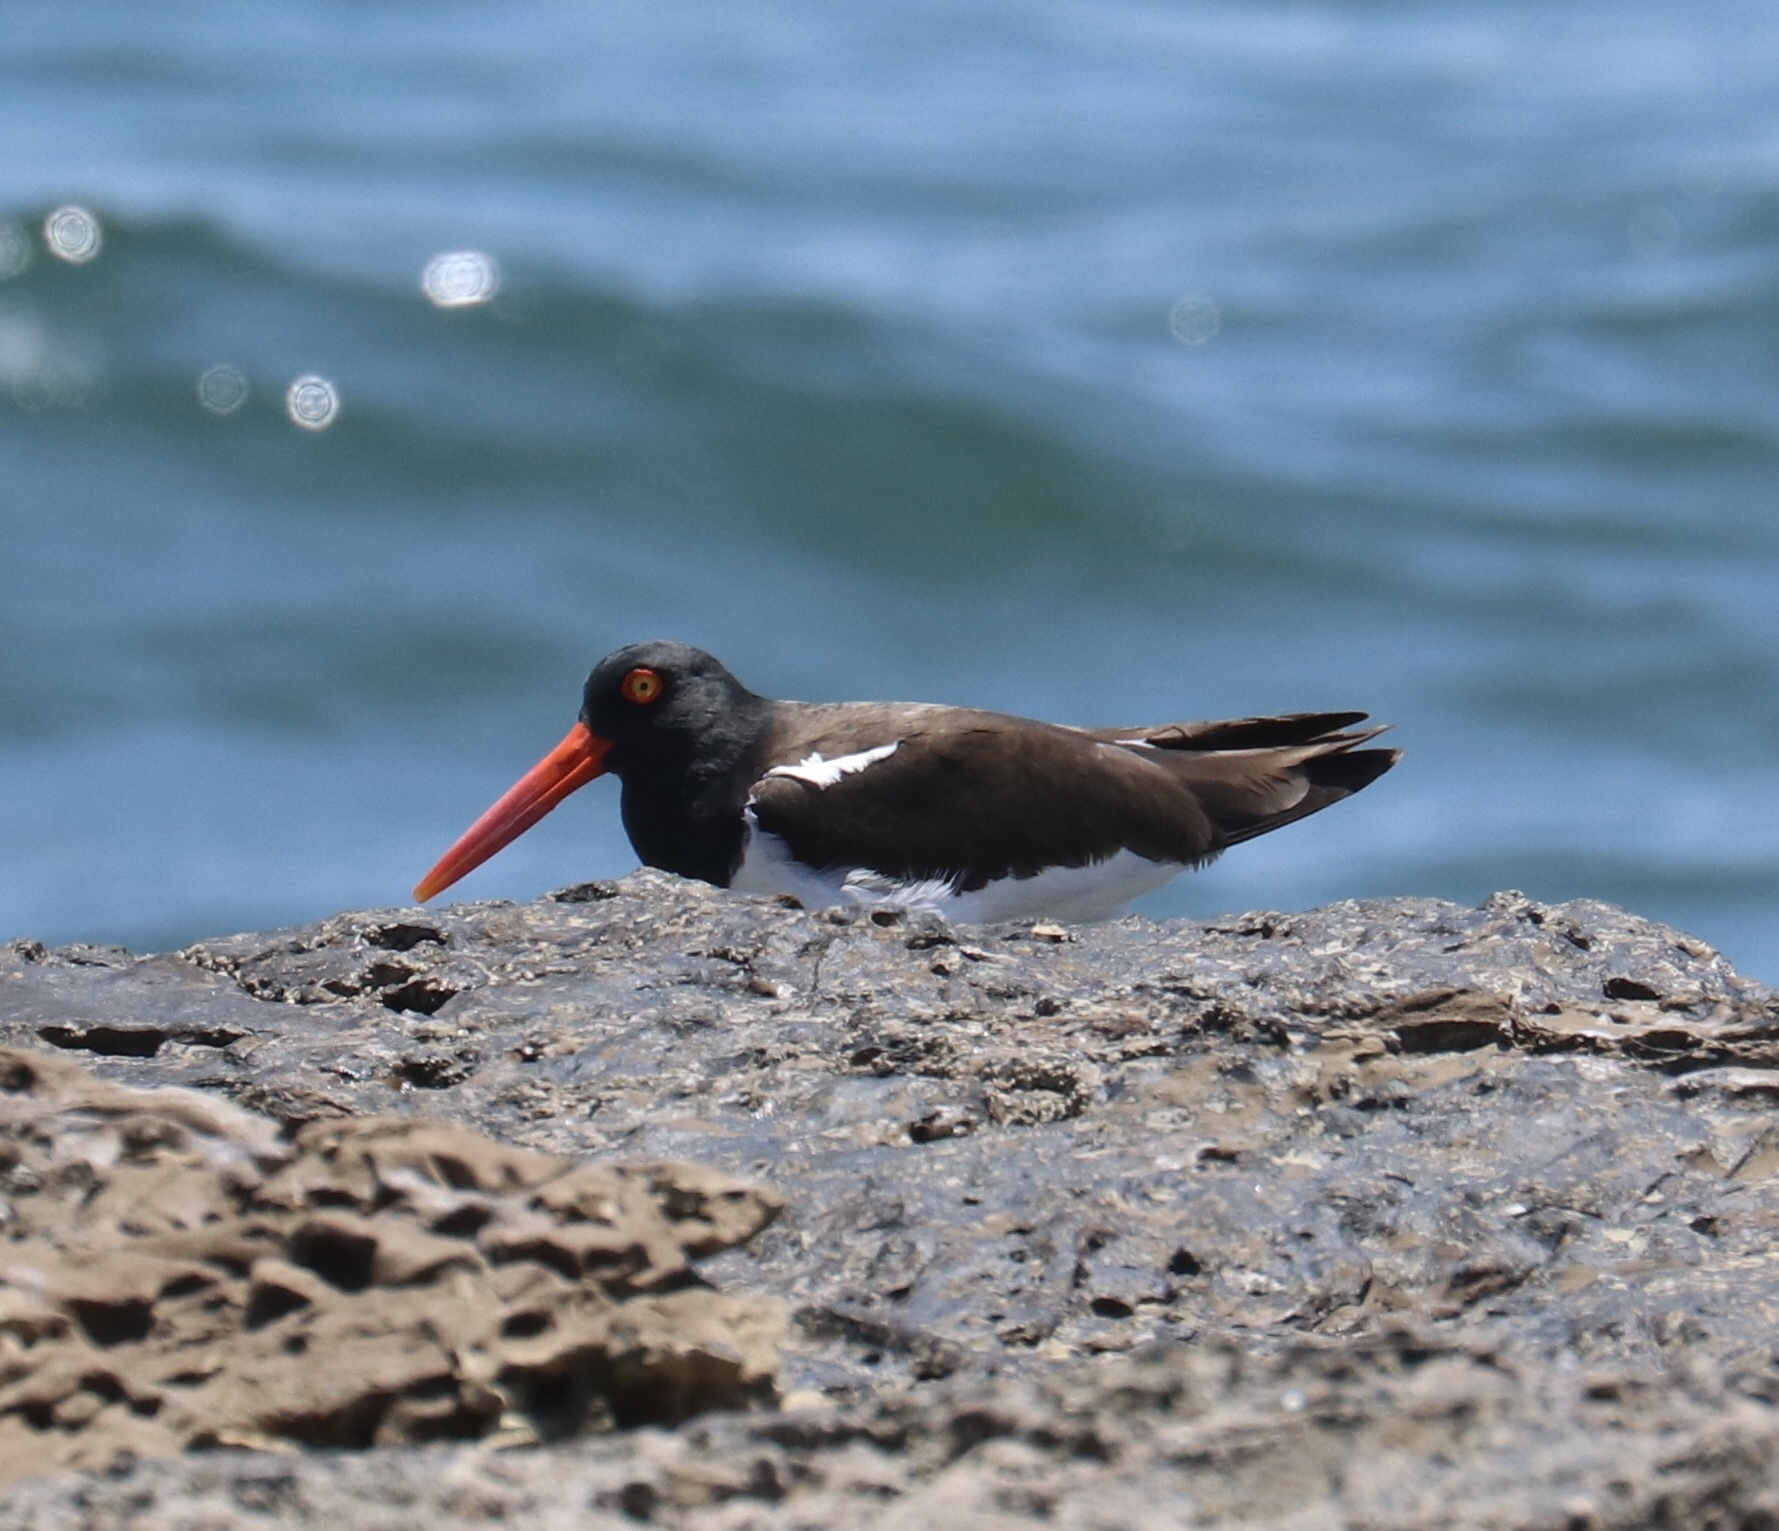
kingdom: Animalia
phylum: Chordata
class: Aves
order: Charadriiformes
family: Haematopodidae
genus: Haematopus
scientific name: Haematopus palliatus
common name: American oystercatcher
